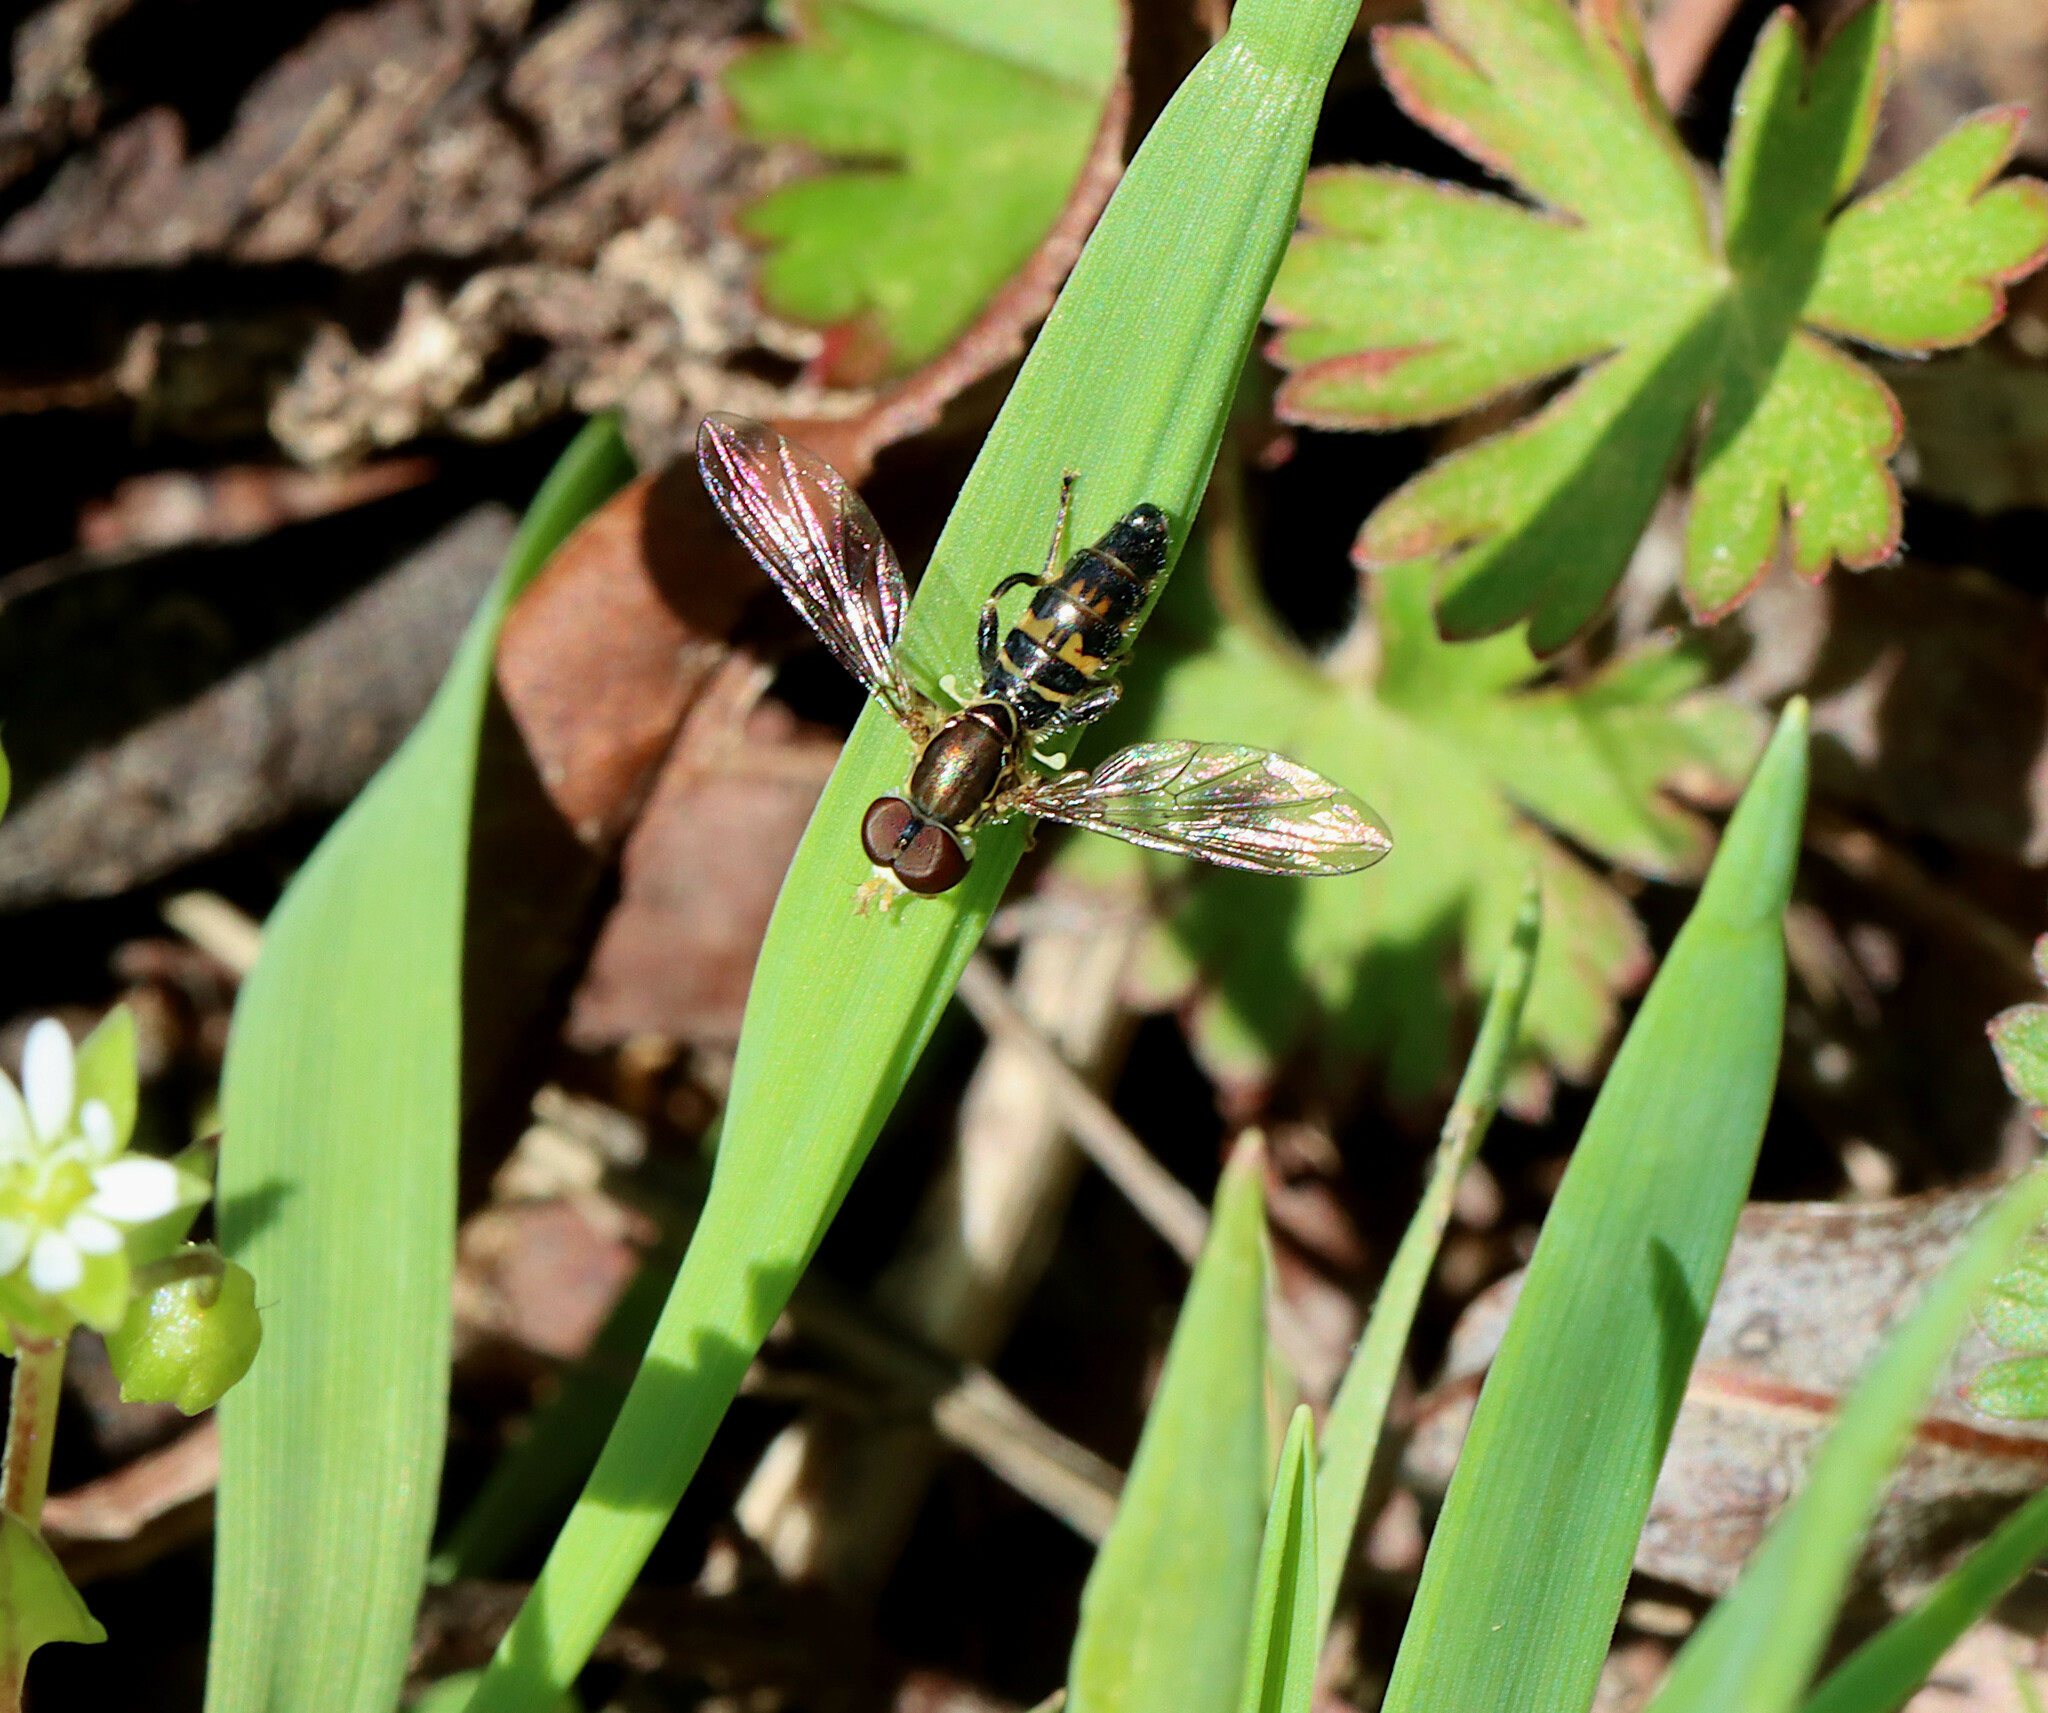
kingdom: Animalia
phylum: Arthropoda
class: Insecta
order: Diptera
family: Syrphidae
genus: Toxomerus
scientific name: Toxomerus geminatus
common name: Eastern calligrapher
